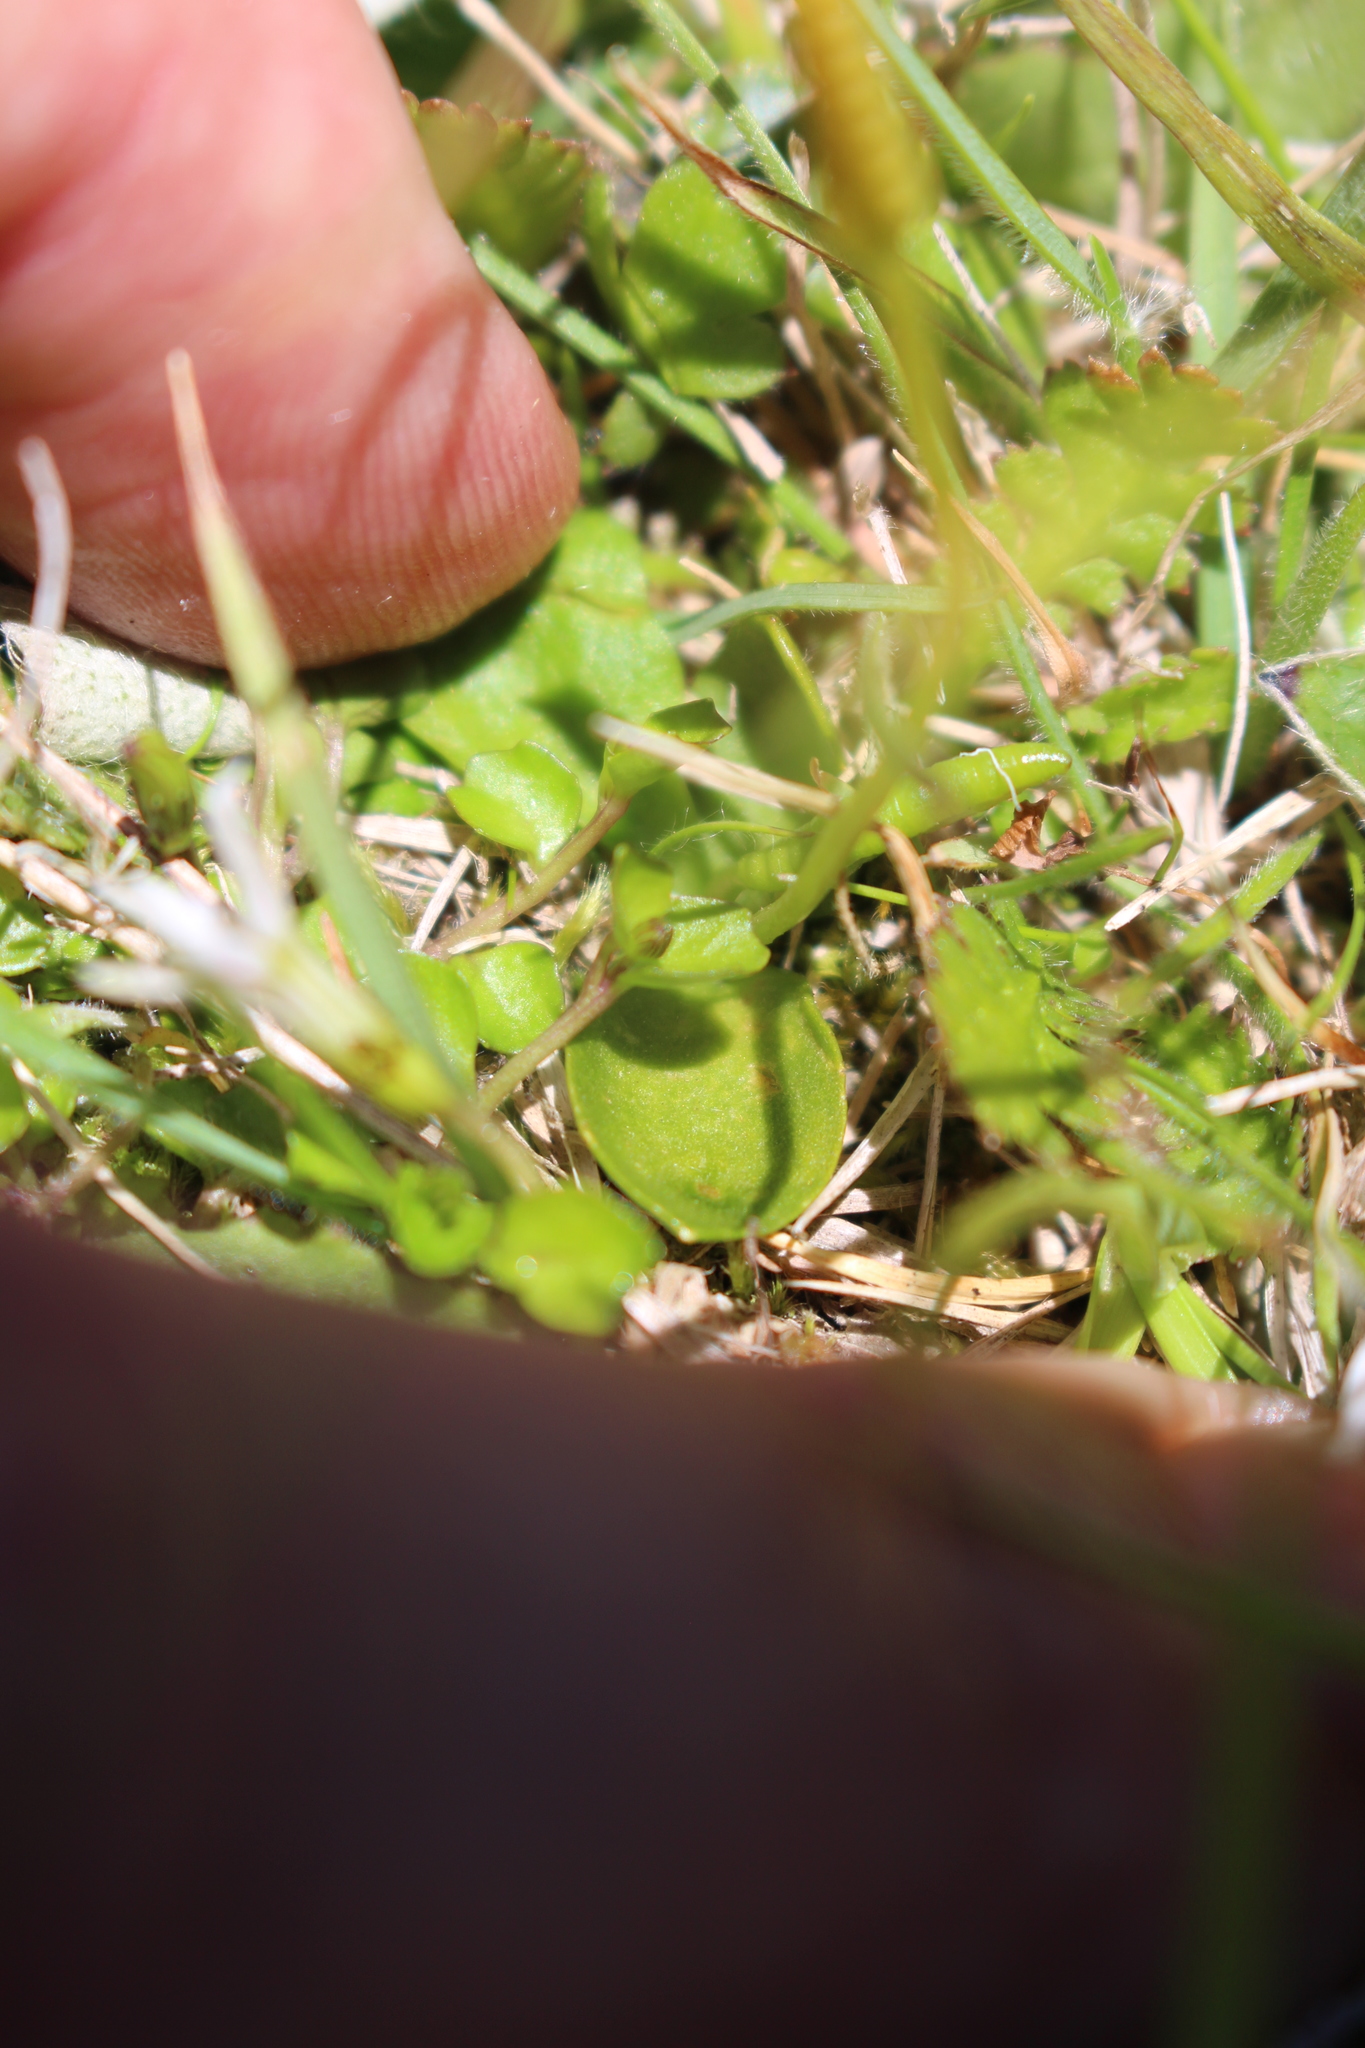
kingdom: Plantae
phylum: Tracheophyta
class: Polypodiopsida
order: Ophioglossales
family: Ophioglossaceae
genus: Ophioglossum
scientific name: Ophioglossum coriaceum
